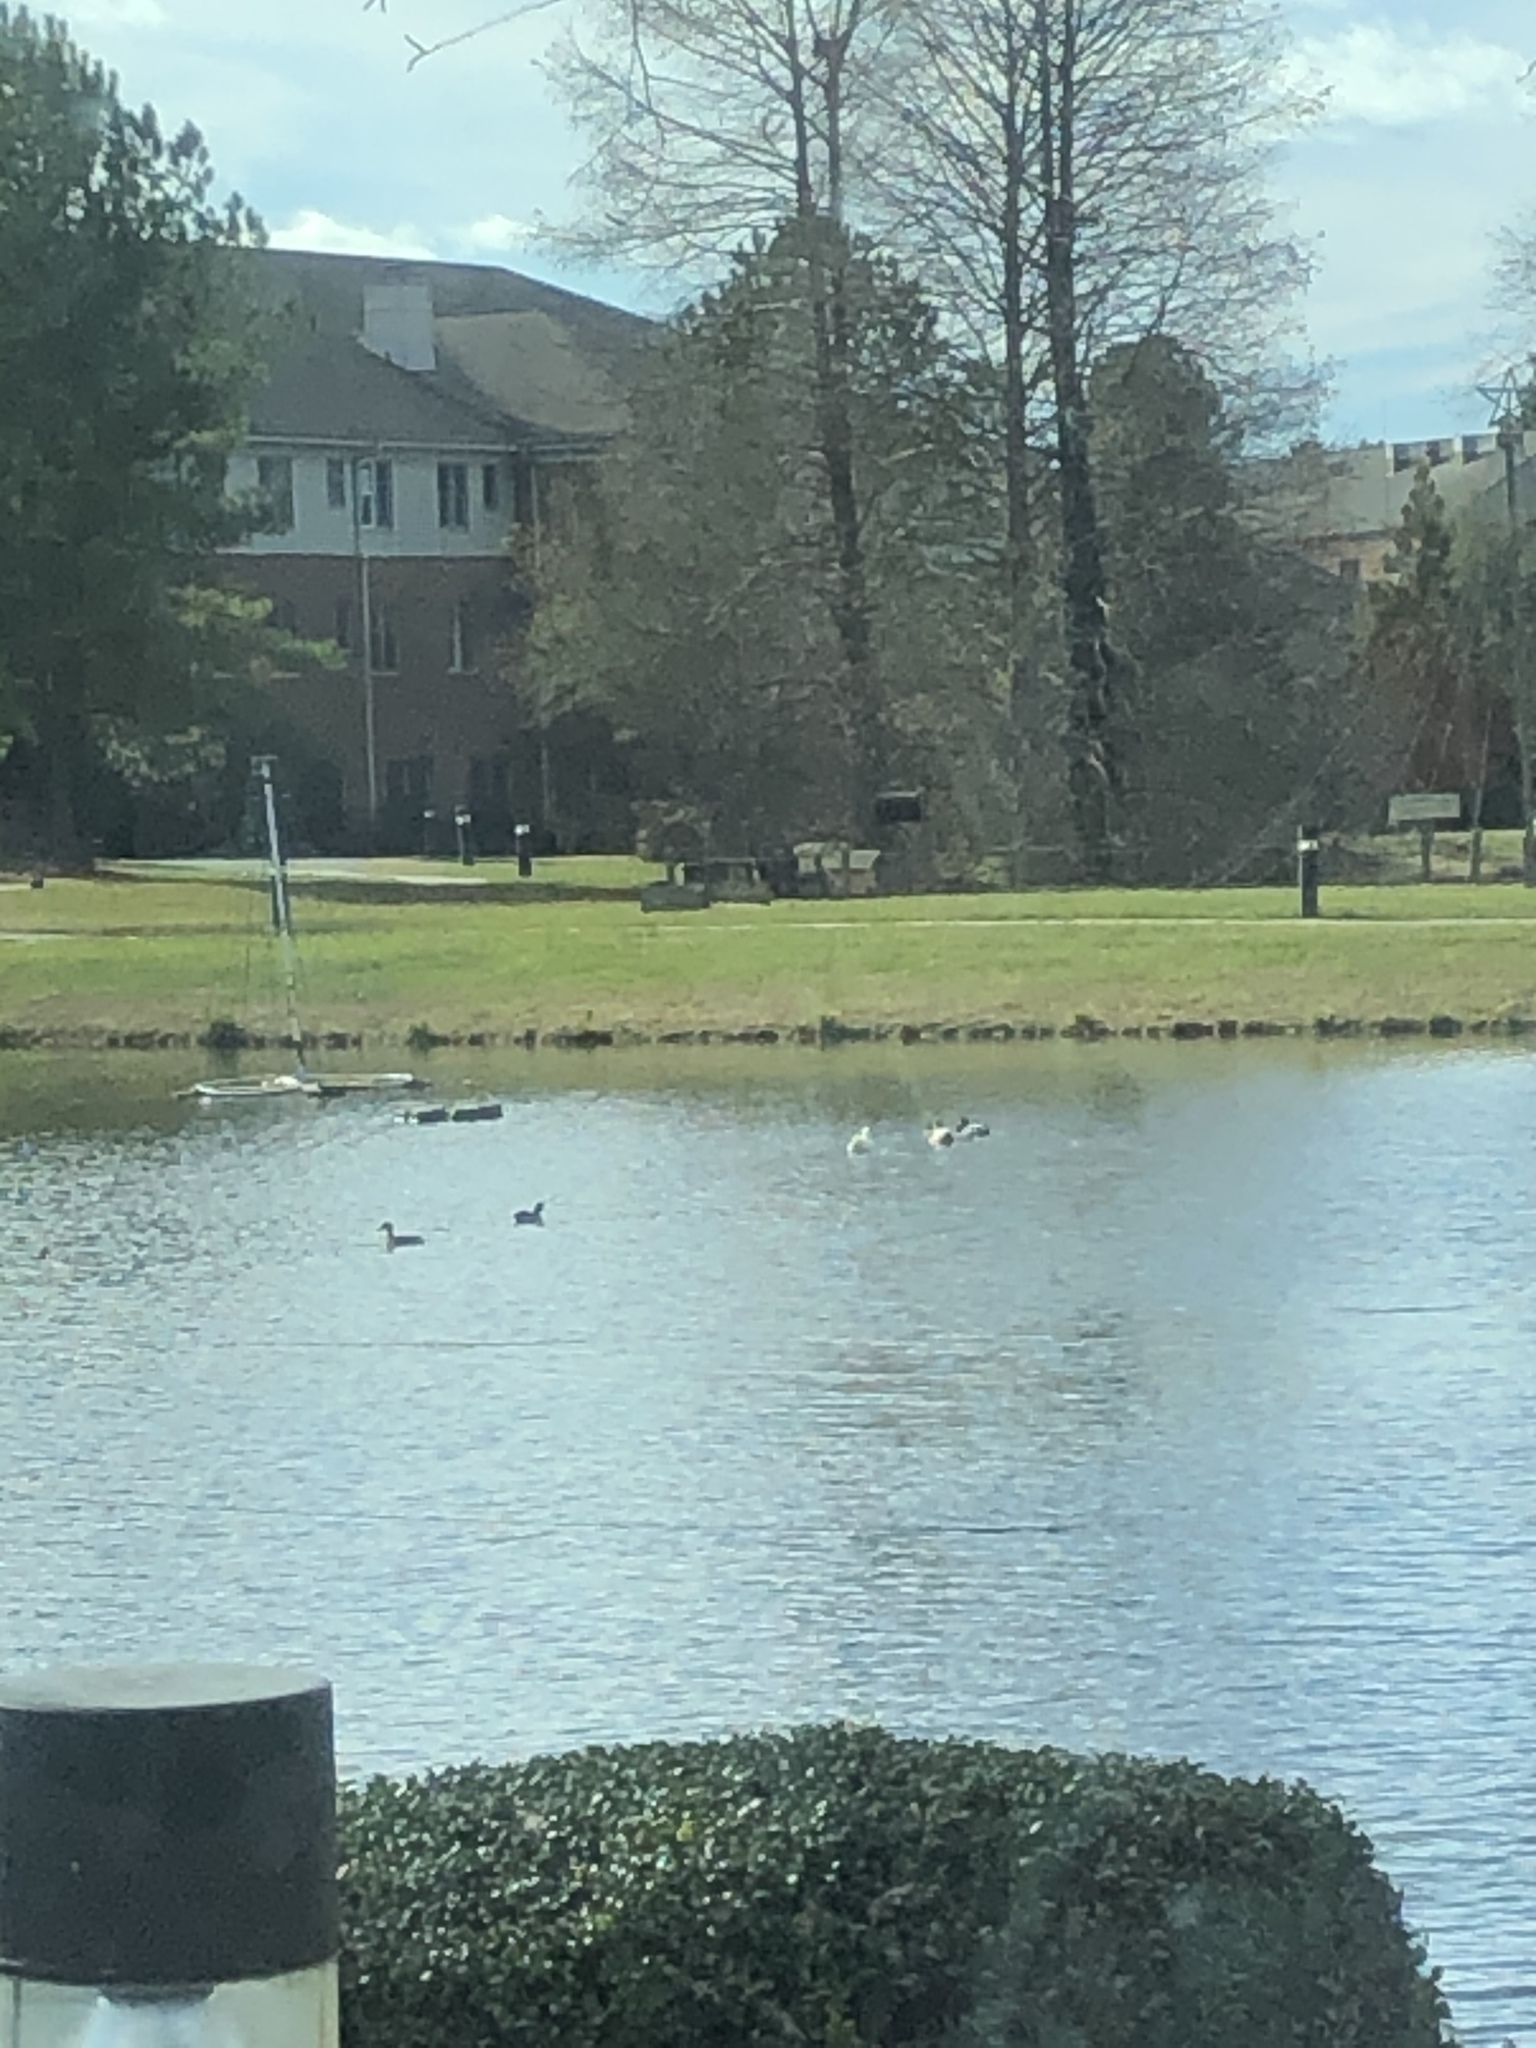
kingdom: Animalia
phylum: Chordata
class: Aves
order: Anseriformes
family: Anatidae
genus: Anas
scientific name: Anas platyrhynchos
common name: Mallard
